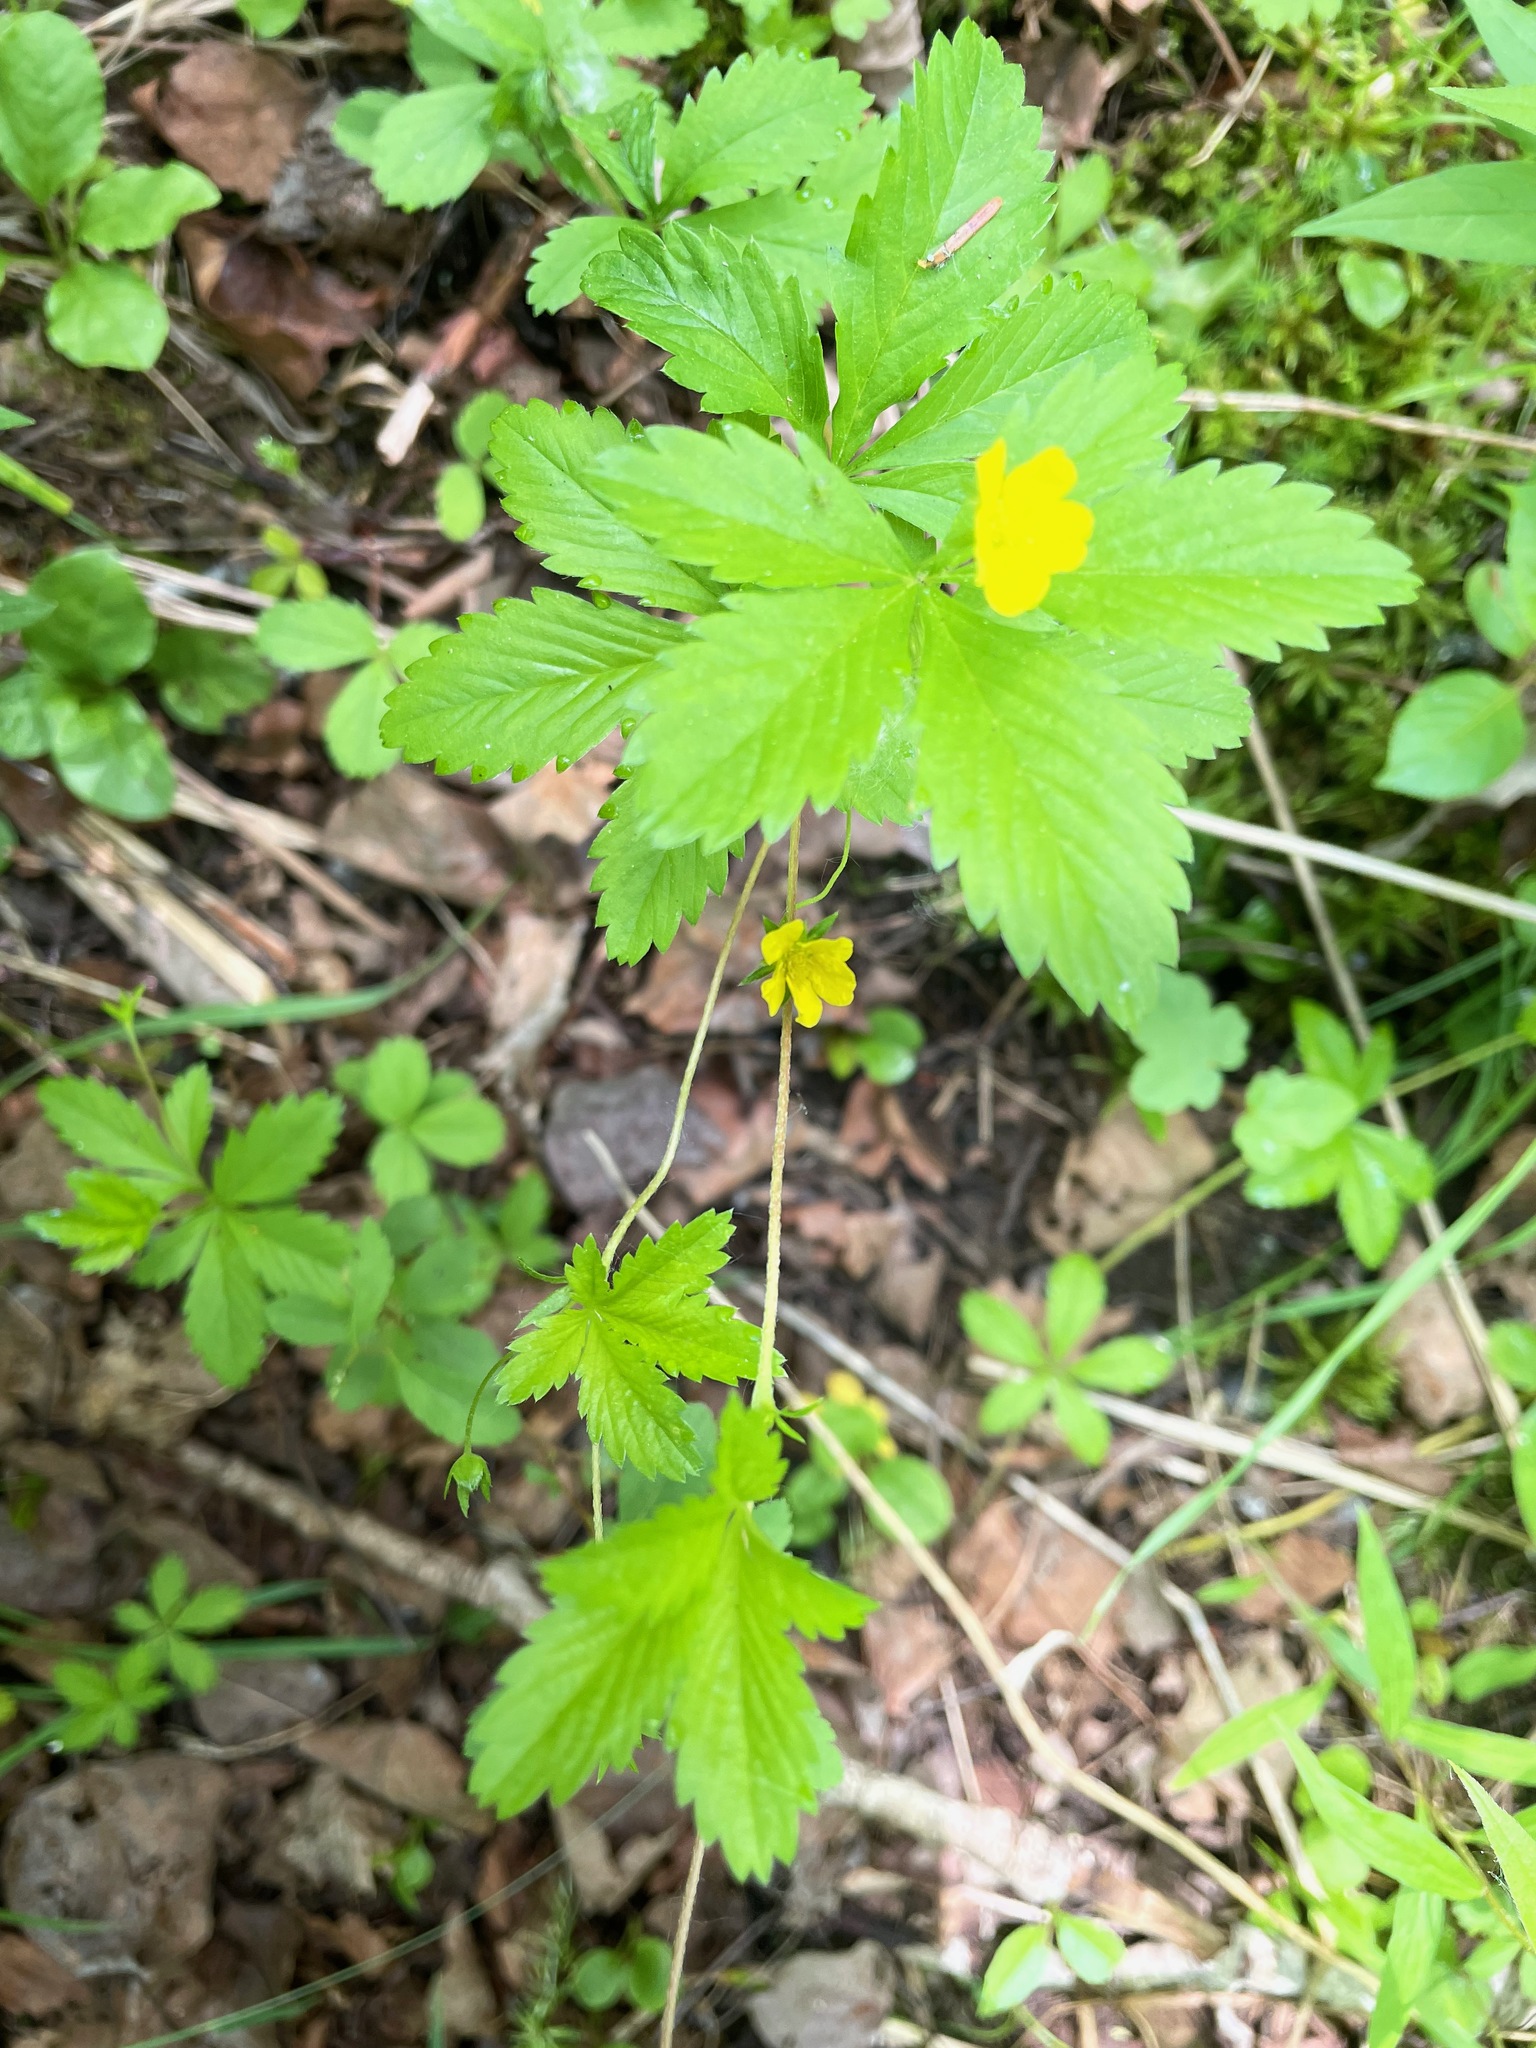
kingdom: Plantae
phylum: Tracheophyta
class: Magnoliopsida
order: Rosales
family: Rosaceae
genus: Potentilla
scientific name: Potentilla simplex
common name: Old field cinquefoil
